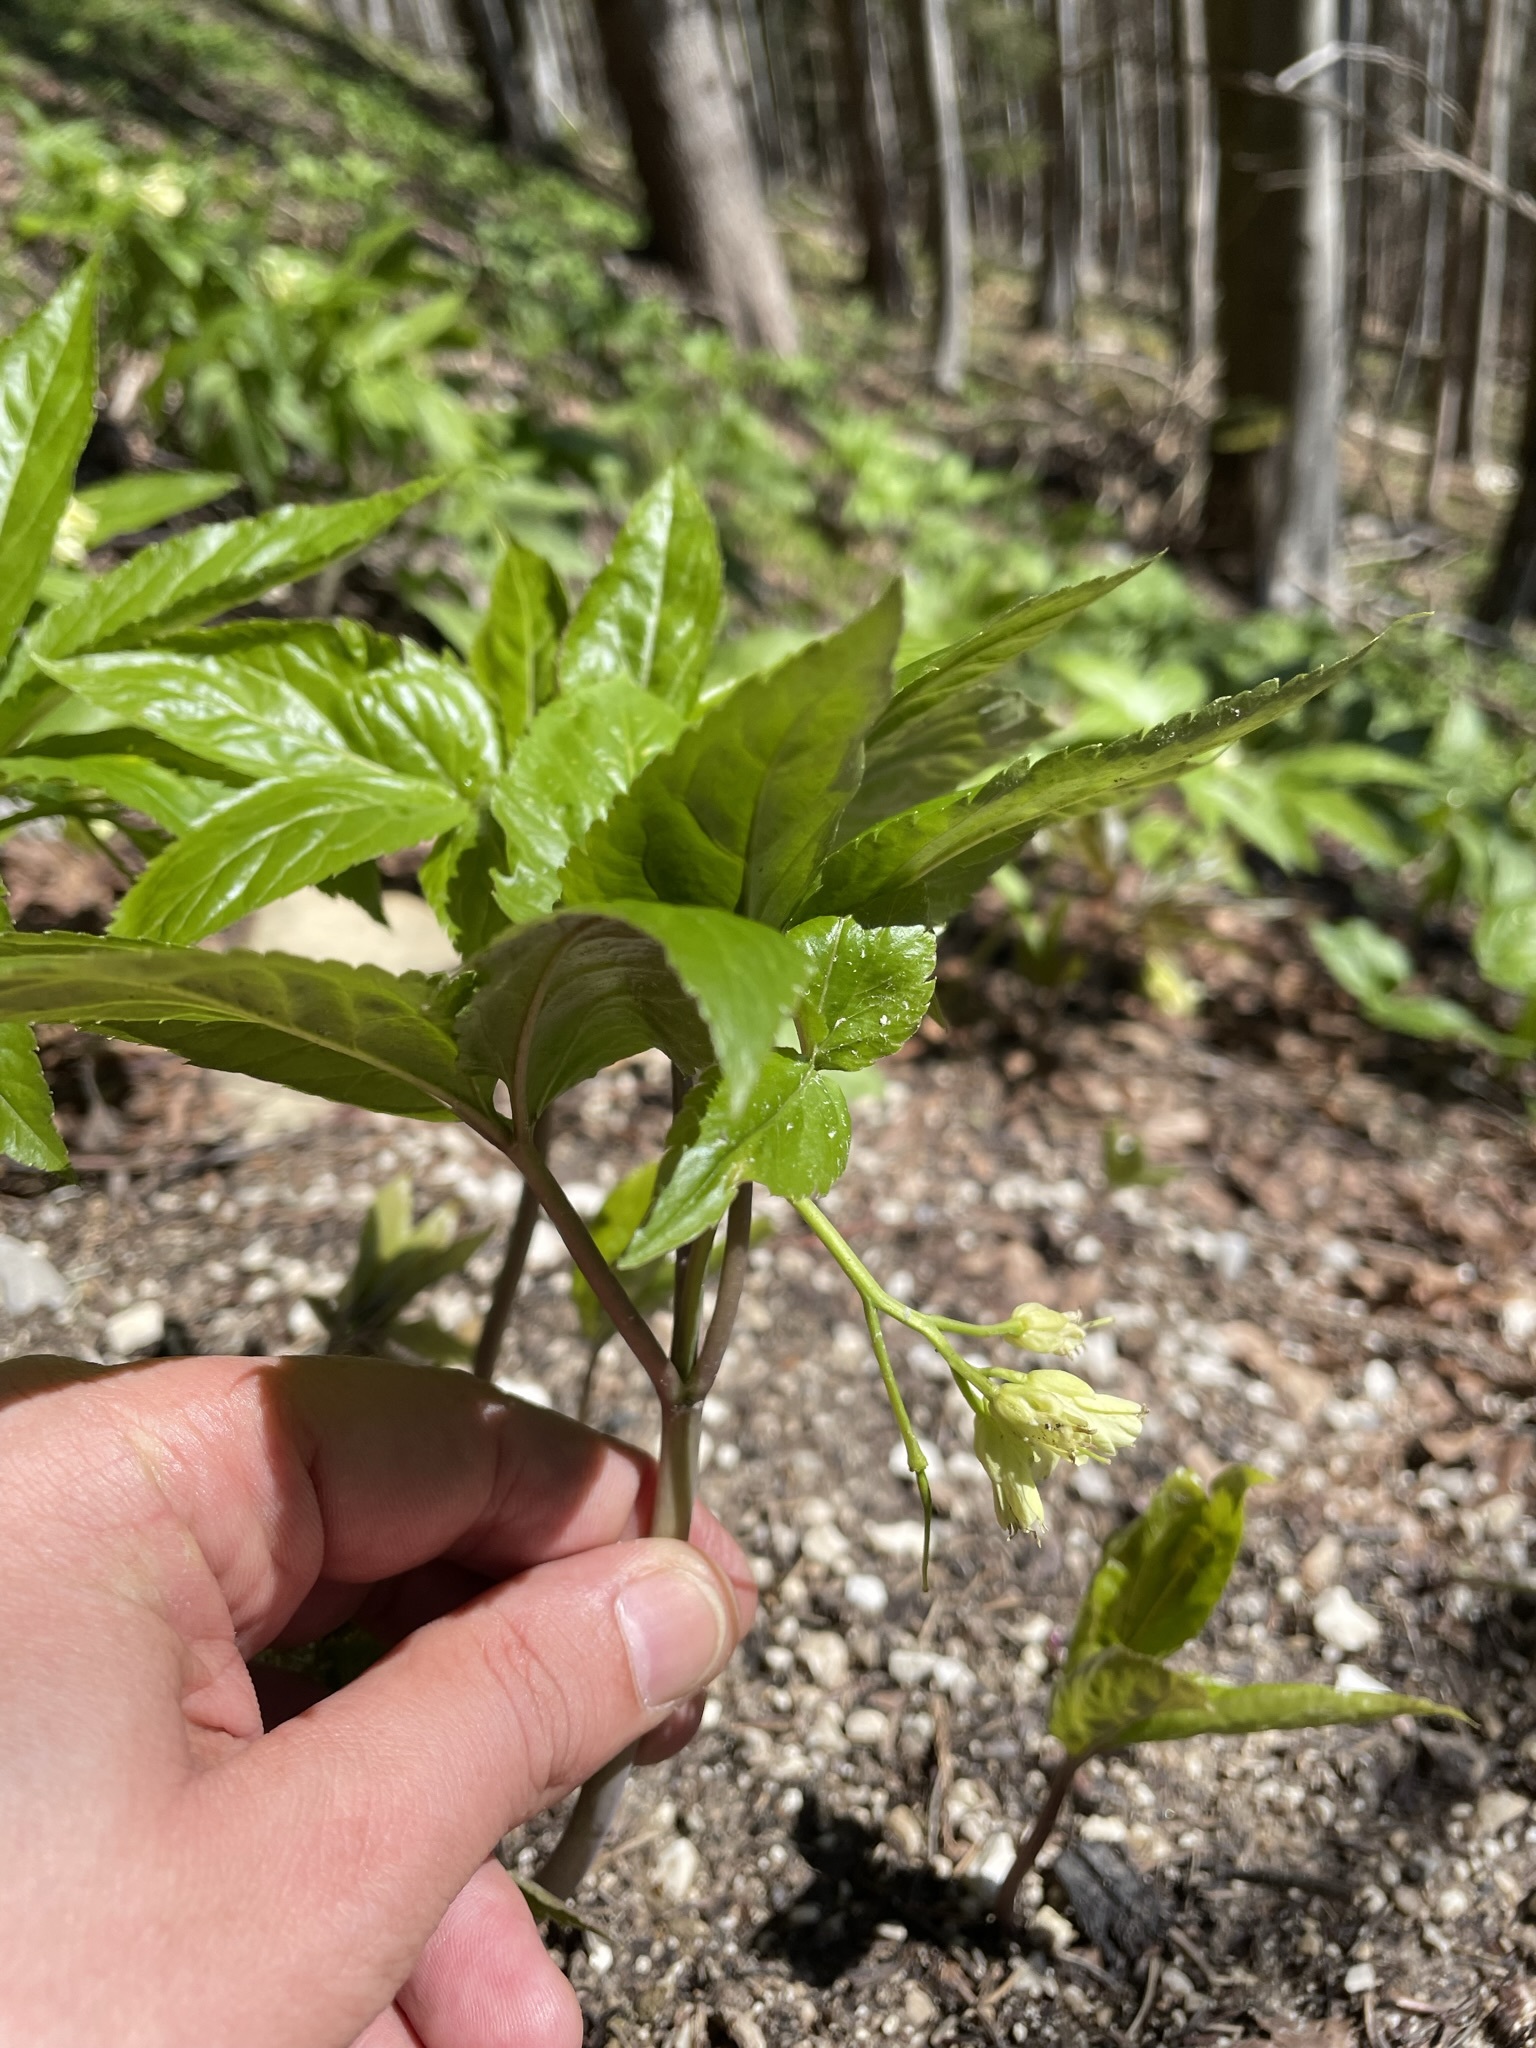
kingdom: Plantae
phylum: Tracheophyta
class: Magnoliopsida
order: Brassicales
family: Brassicaceae
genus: Cardamine
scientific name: Cardamine enneaphyllos
